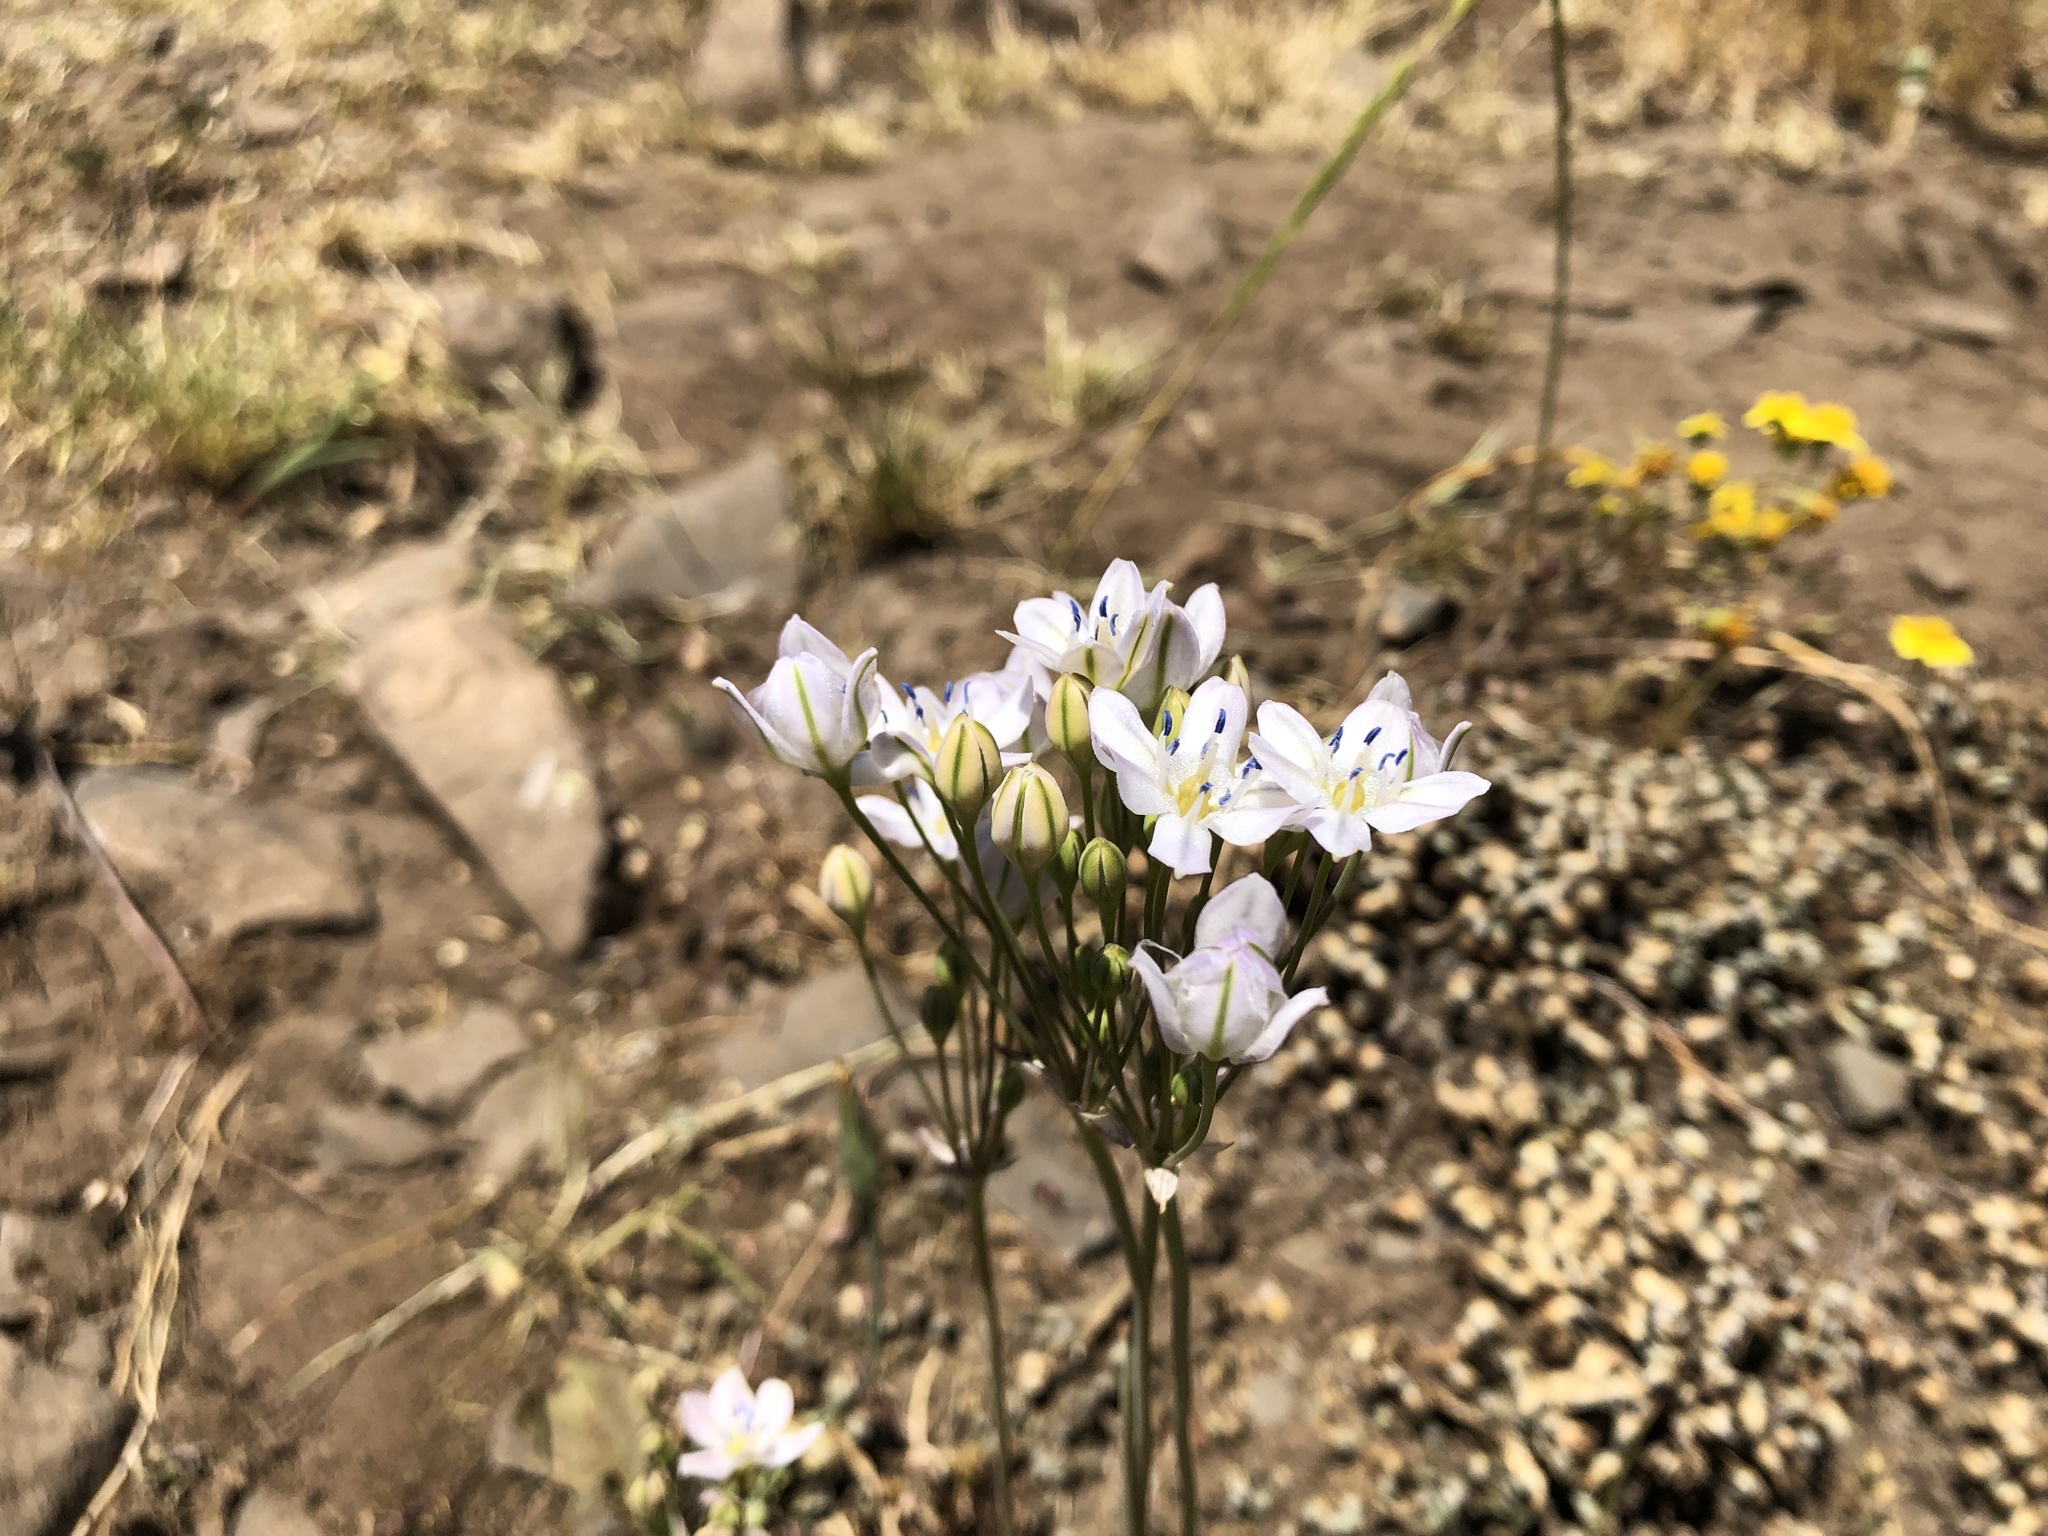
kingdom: Plantae
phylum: Tracheophyta
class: Liliopsida
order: Asparagales
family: Asparagaceae
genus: Triteleia
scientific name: Triteleia lilacina
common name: Lilac-flower wild hyacinth
